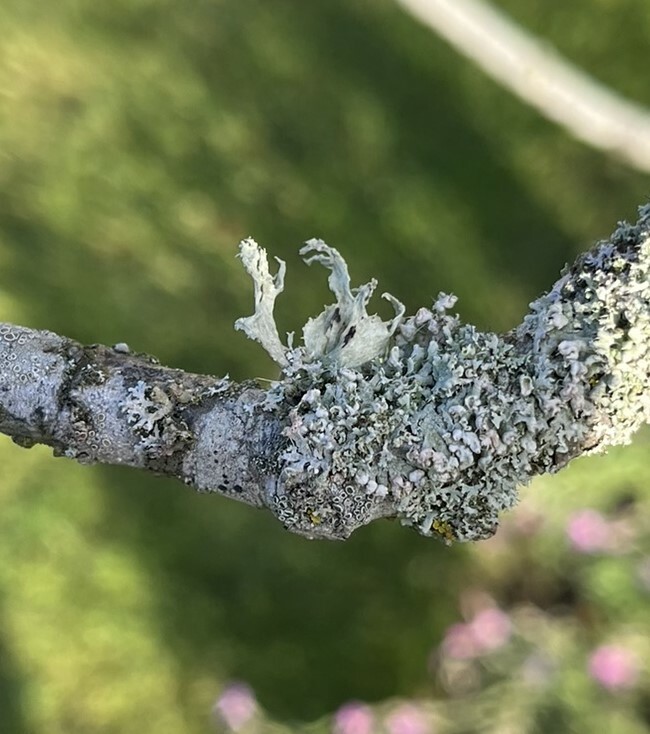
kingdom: Fungi
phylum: Ascomycota
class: Lecanoromycetes
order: Caliciales
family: Physciaceae
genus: Physcia
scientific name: Physcia adscendens
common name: Hooded rosette lichen
